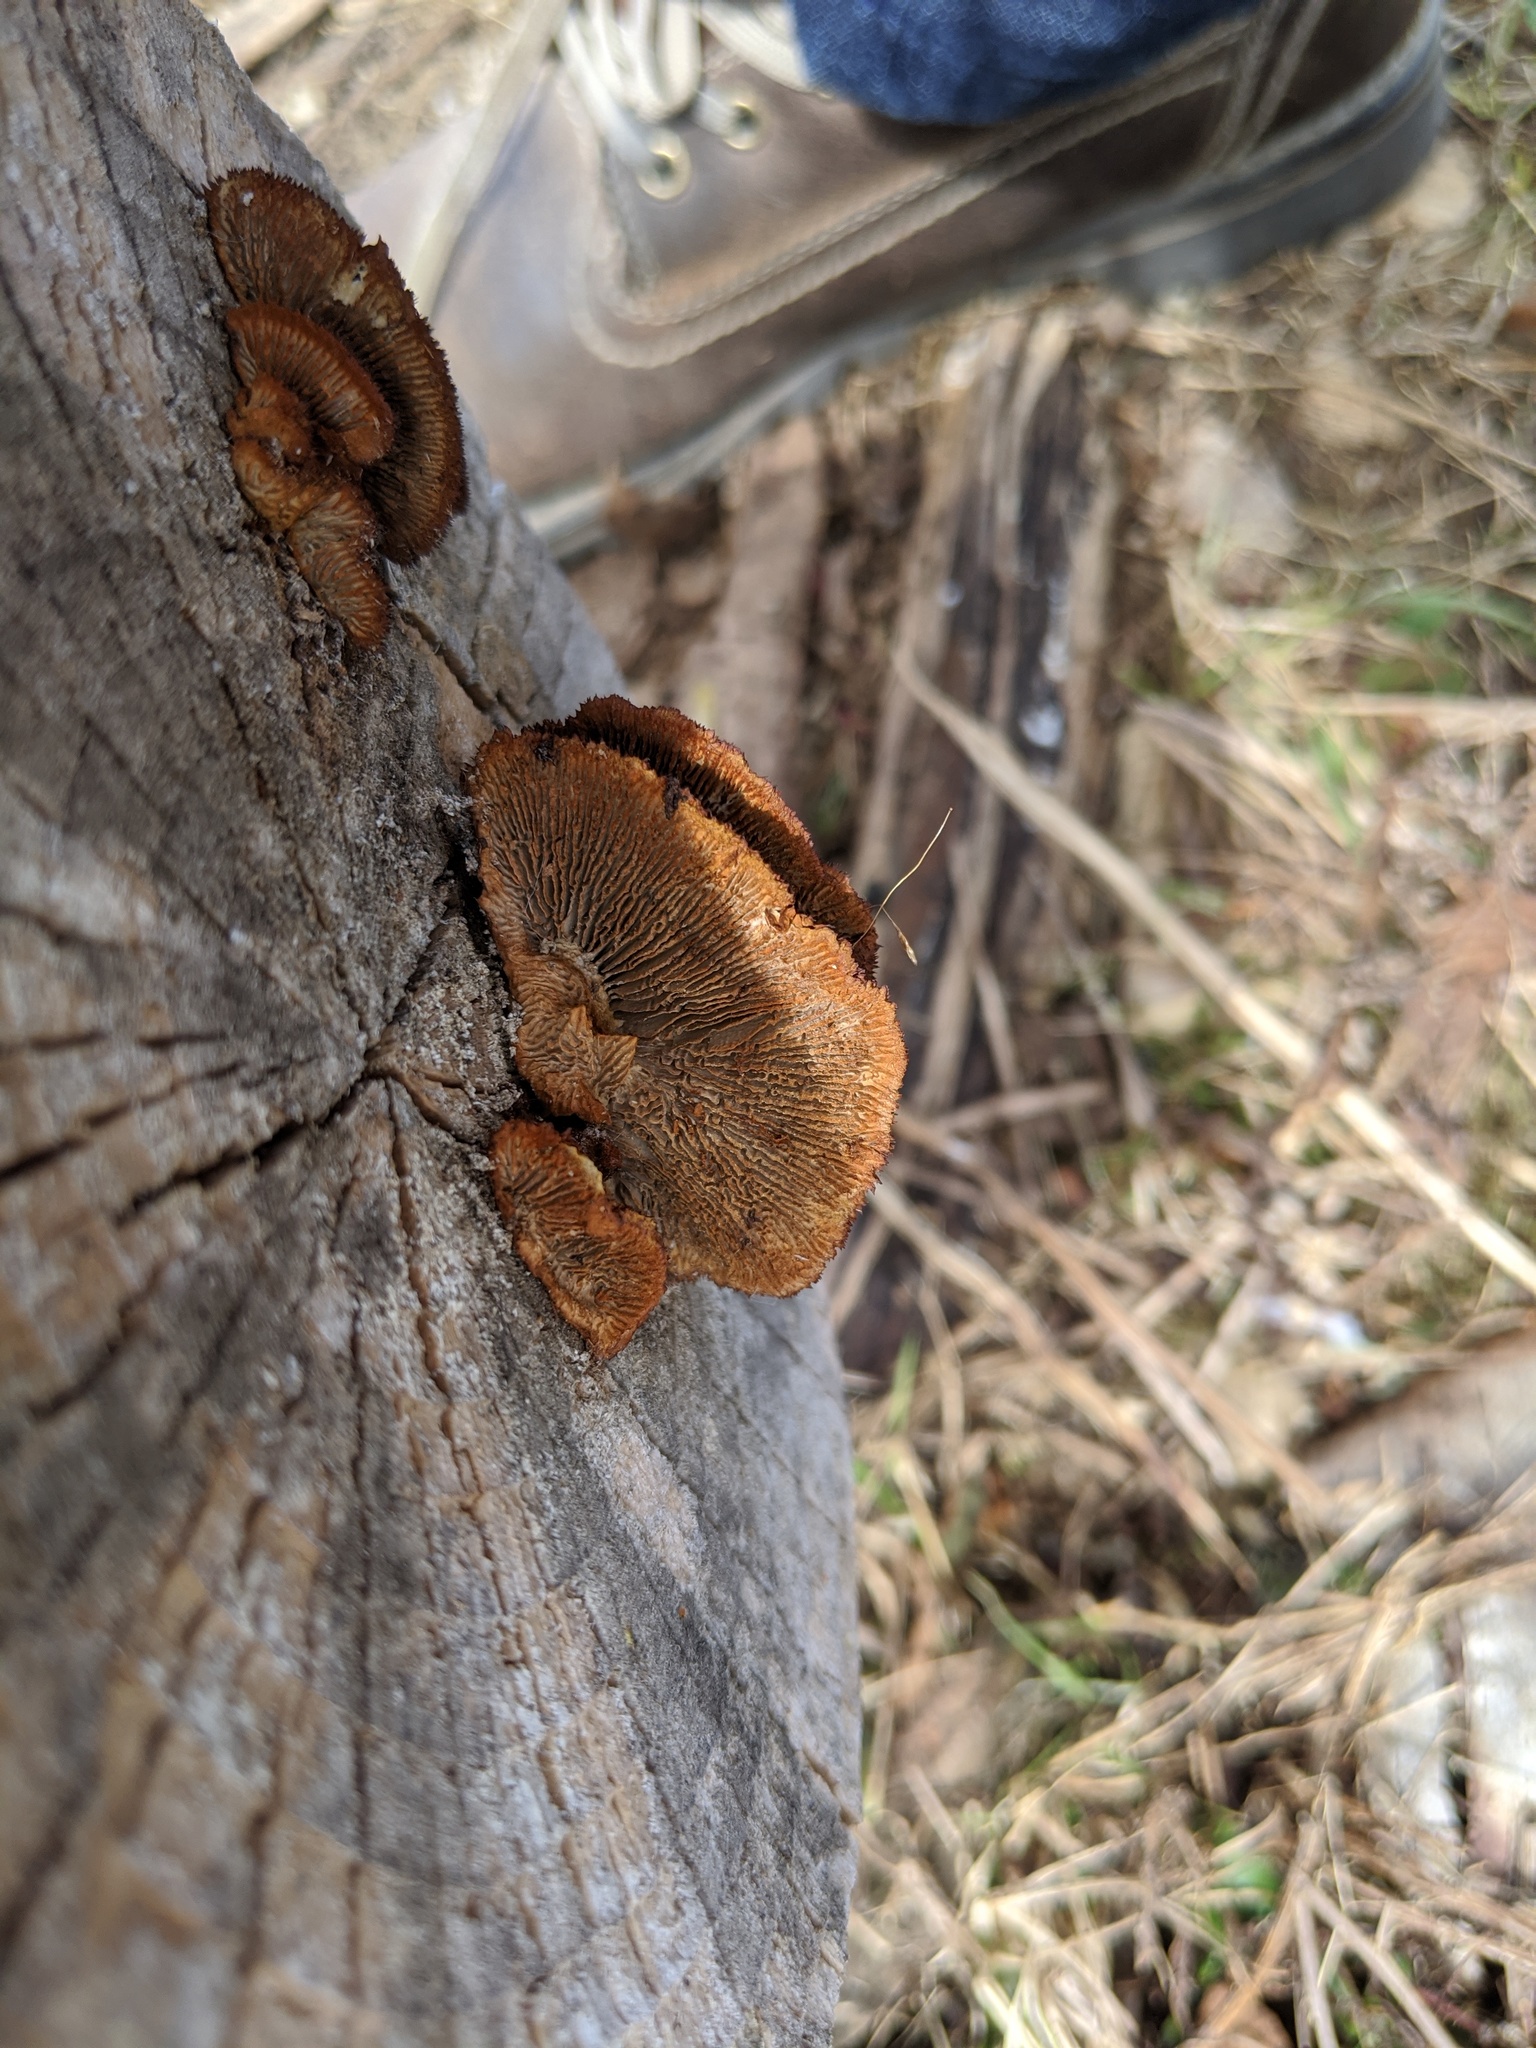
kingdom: Fungi
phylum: Basidiomycota
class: Agaricomycetes
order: Gloeophyllales
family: Gloeophyllaceae
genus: Gloeophyllum
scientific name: Gloeophyllum sepiarium
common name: Conifer mazegill
